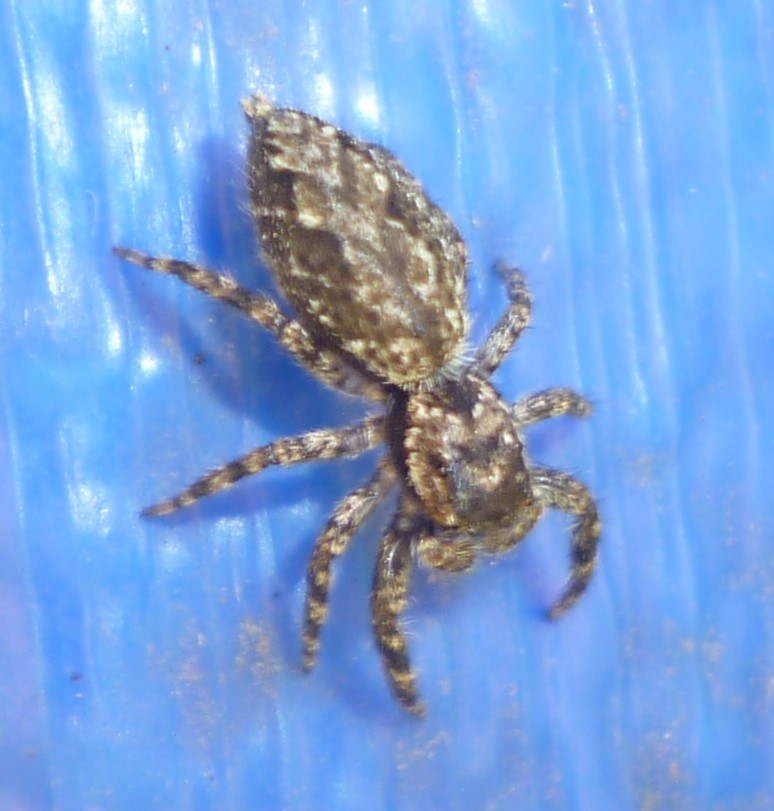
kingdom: Animalia
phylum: Arthropoda
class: Arachnida
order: Araneae
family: Salticidae
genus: Platycryptus
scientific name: Platycryptus undatus
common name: Tan jumping spider
